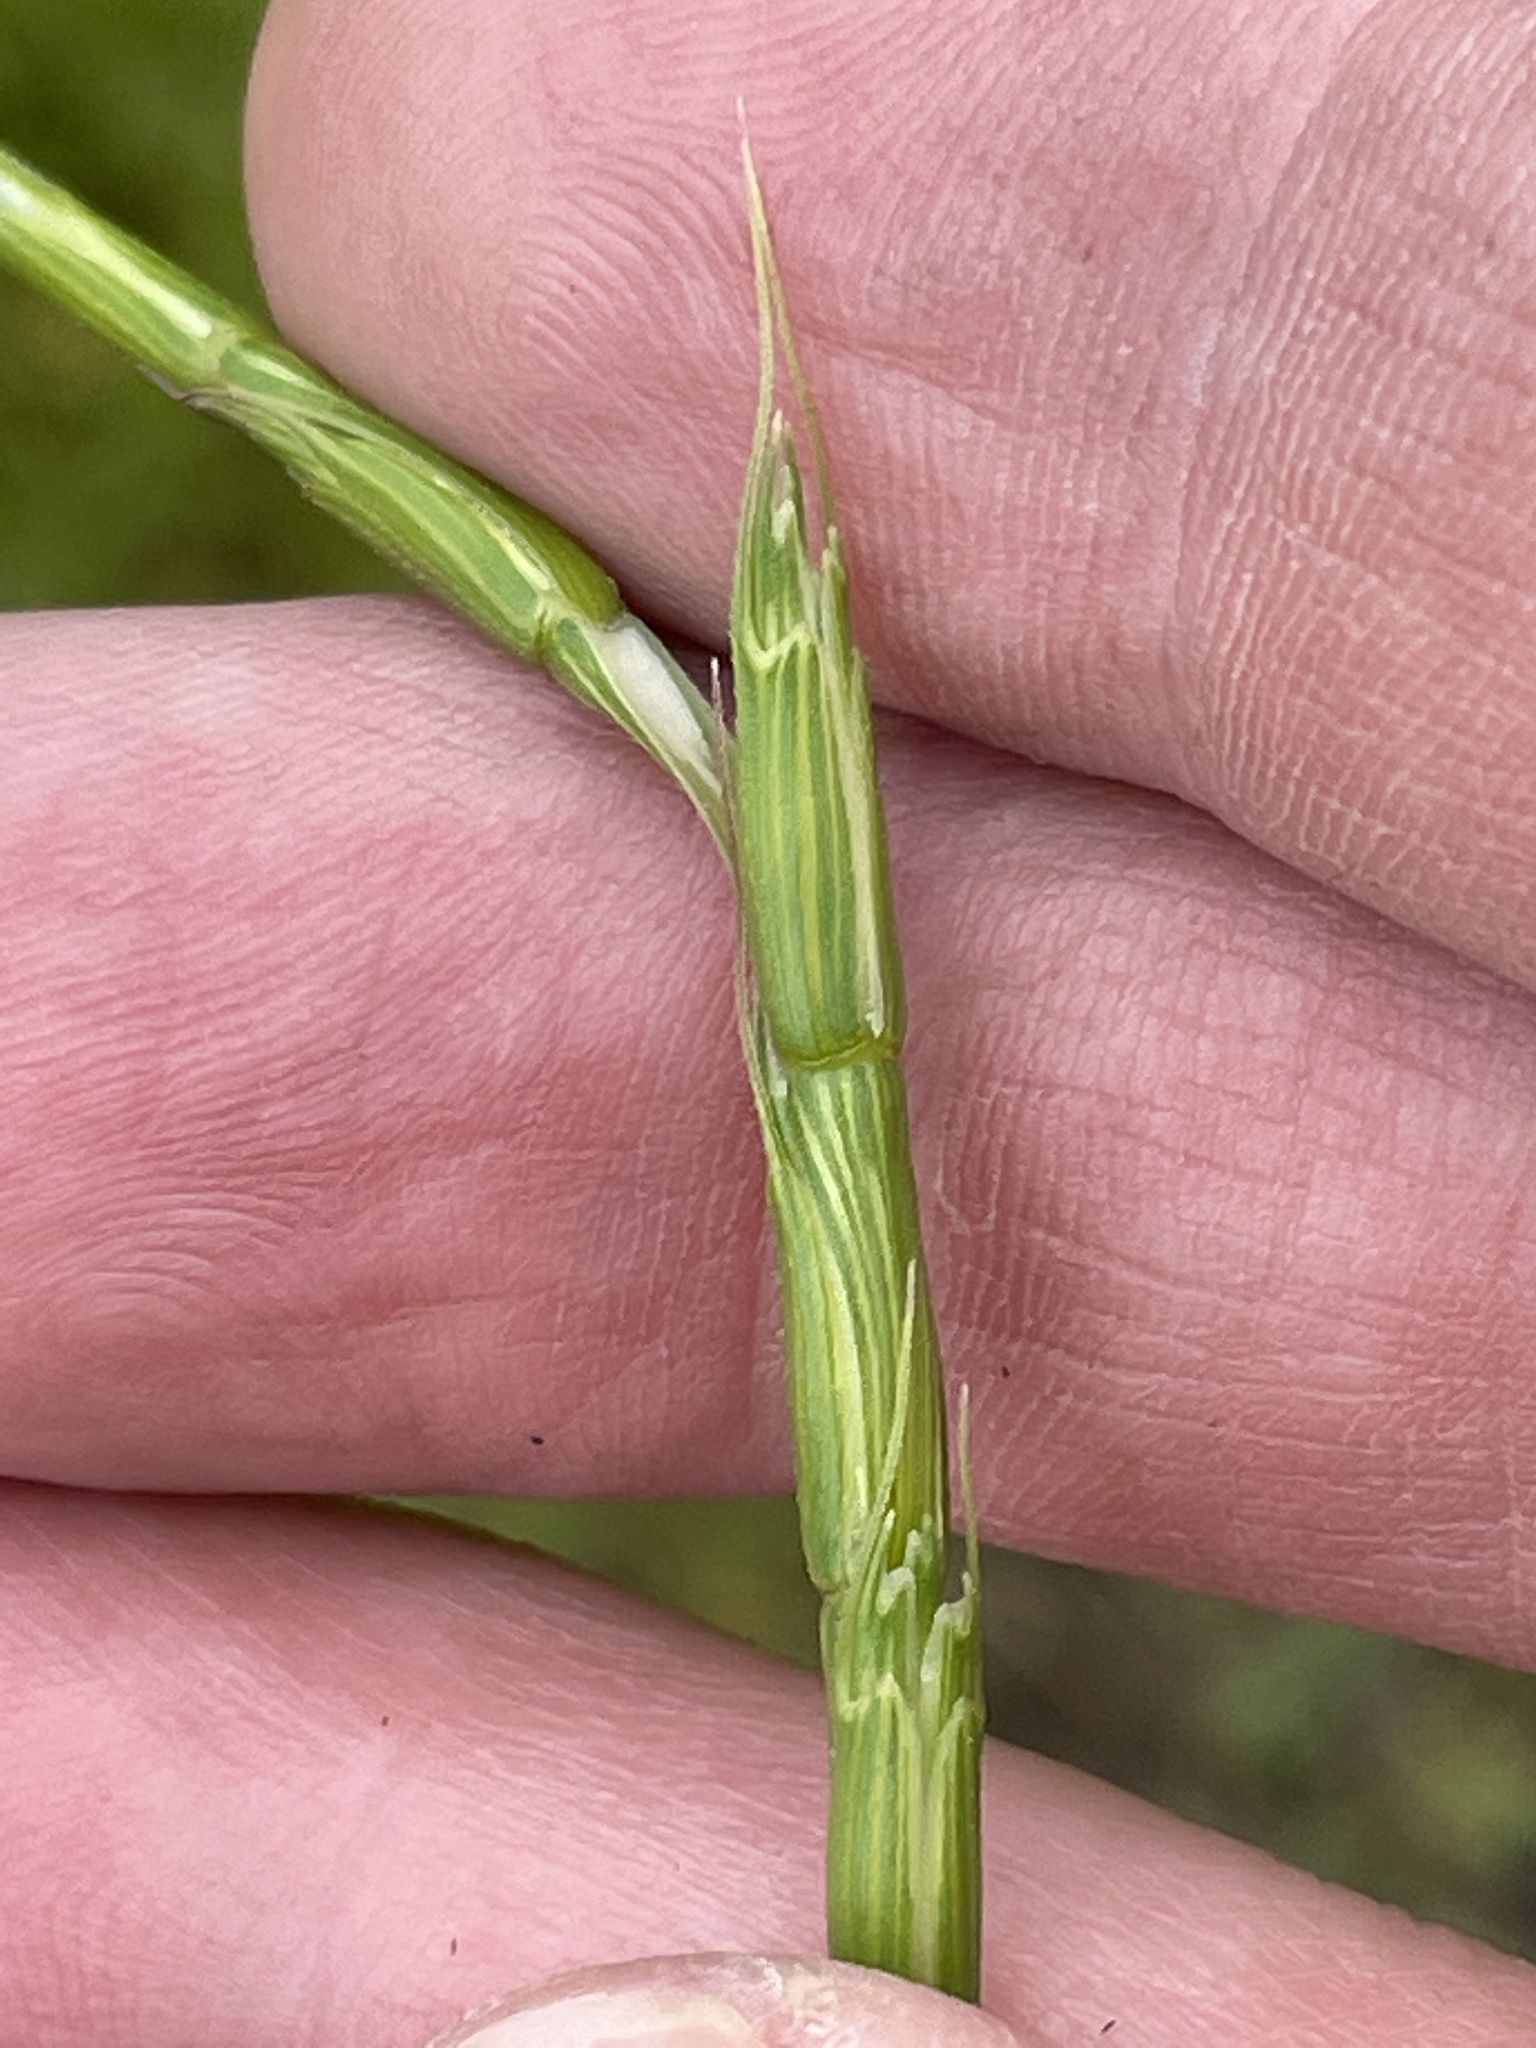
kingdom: Plantae
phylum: Tracheophyta
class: Liliopsida
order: Poales
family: Poaceae
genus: Aegilops
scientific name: Aegilops cylindrica
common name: Jointed goatgrass
